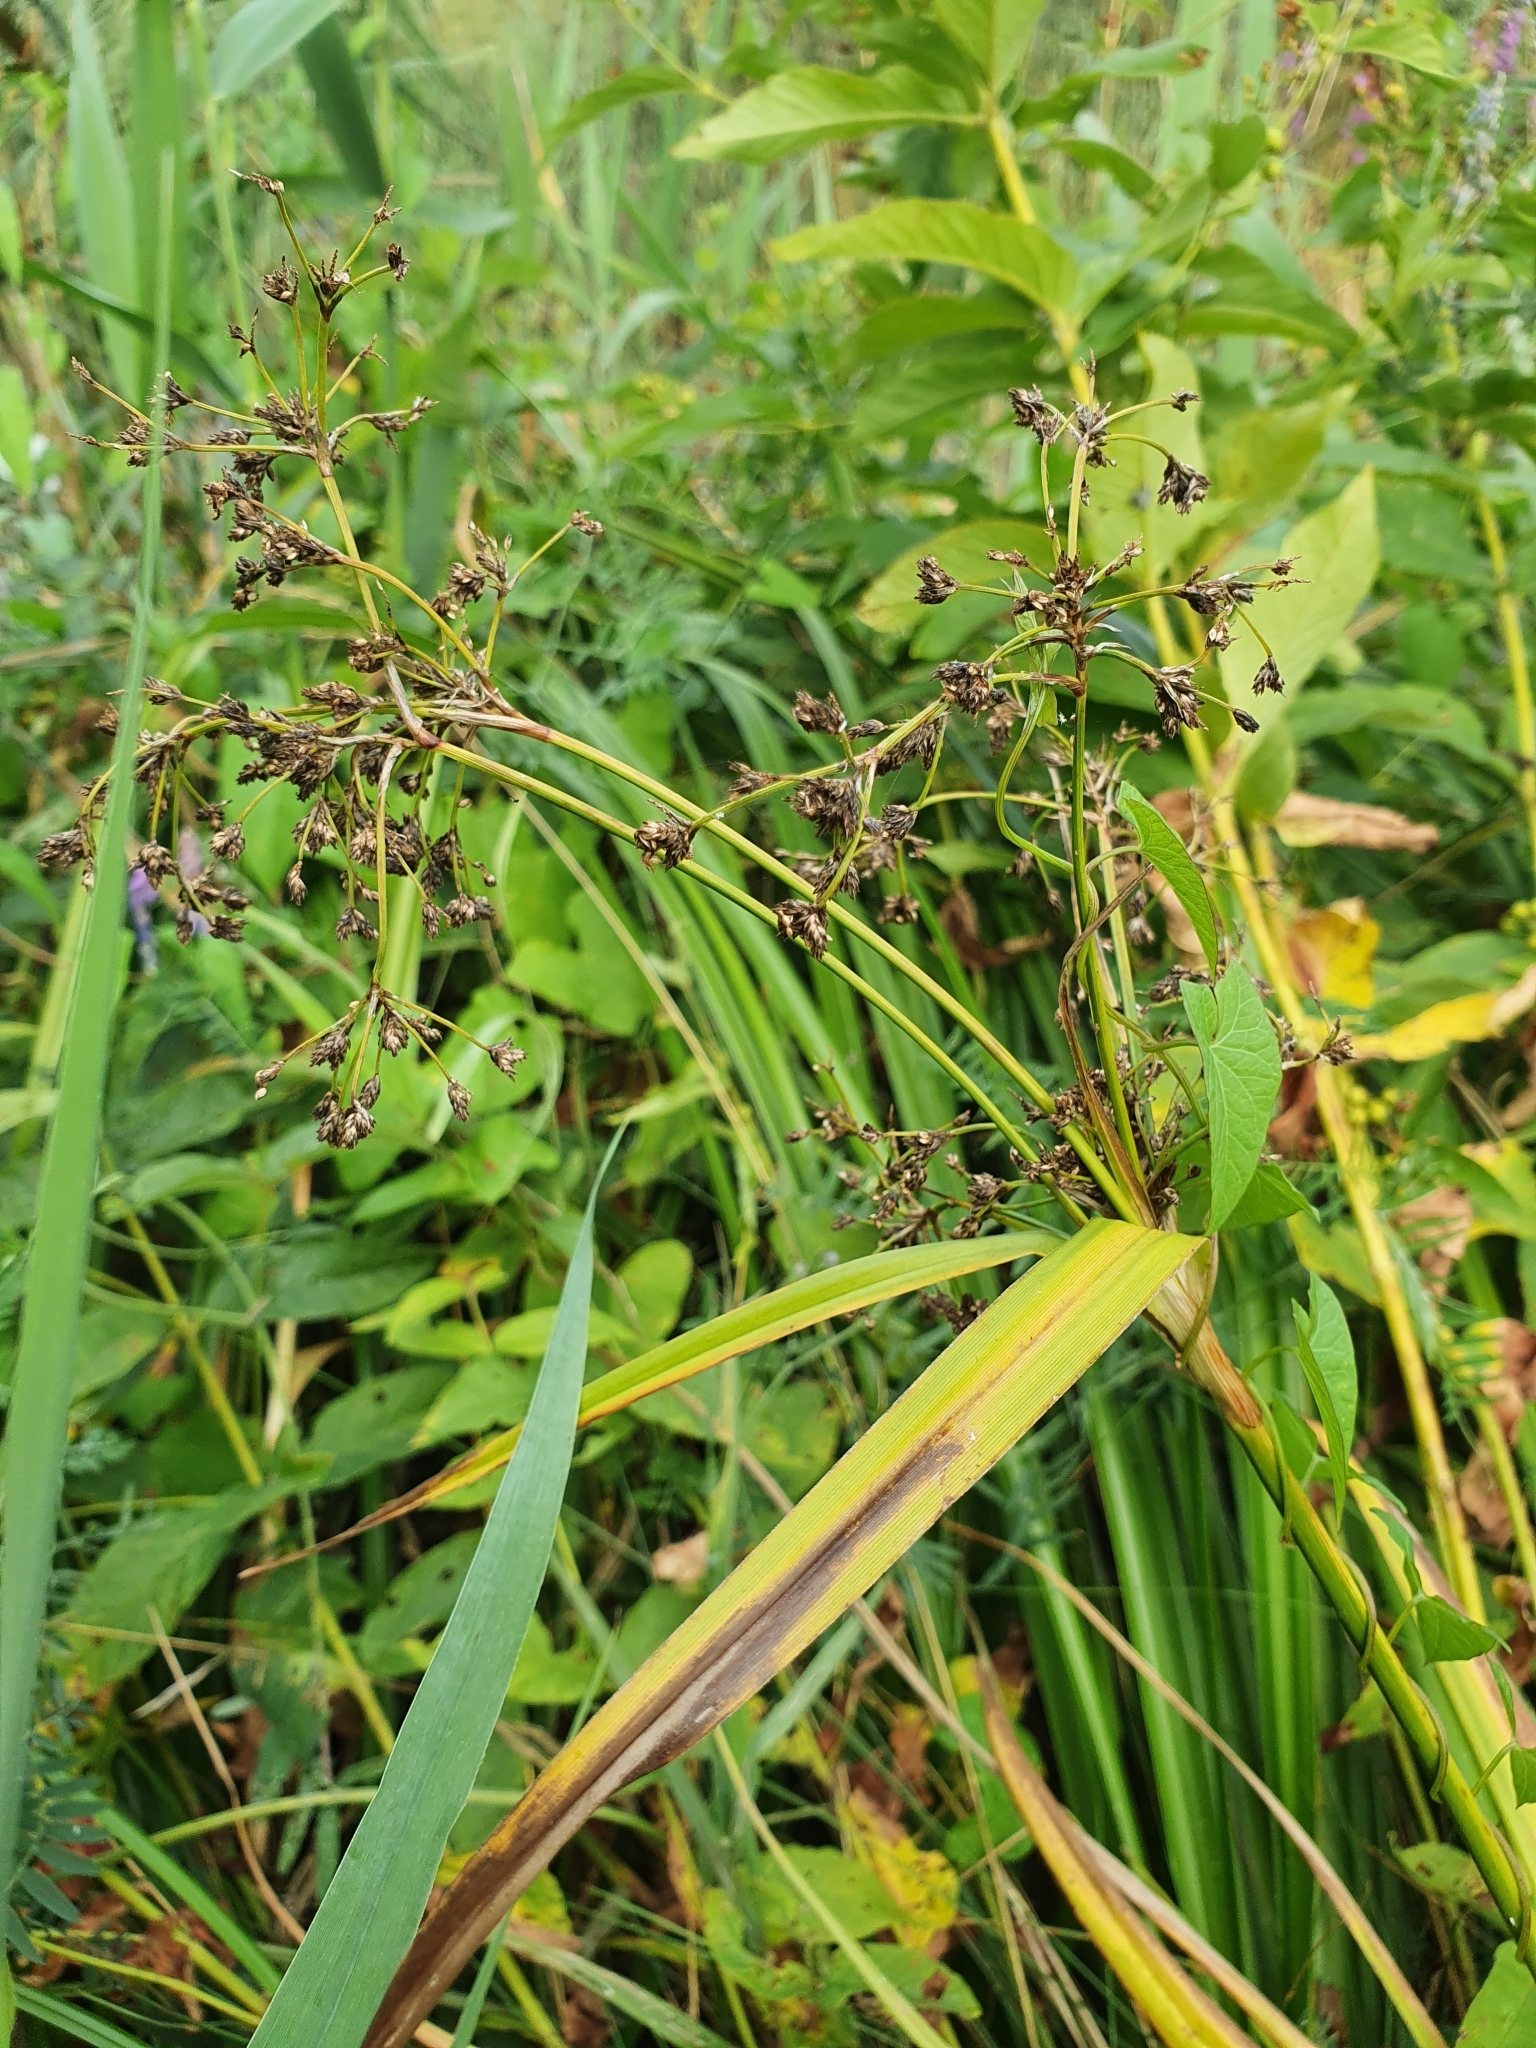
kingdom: Plantae
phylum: Tracheophyta
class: Liliopsida
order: Poales
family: Cyperaceae
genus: Scirpus
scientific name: Scirpus sylvaticus
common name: Wood club-rush
